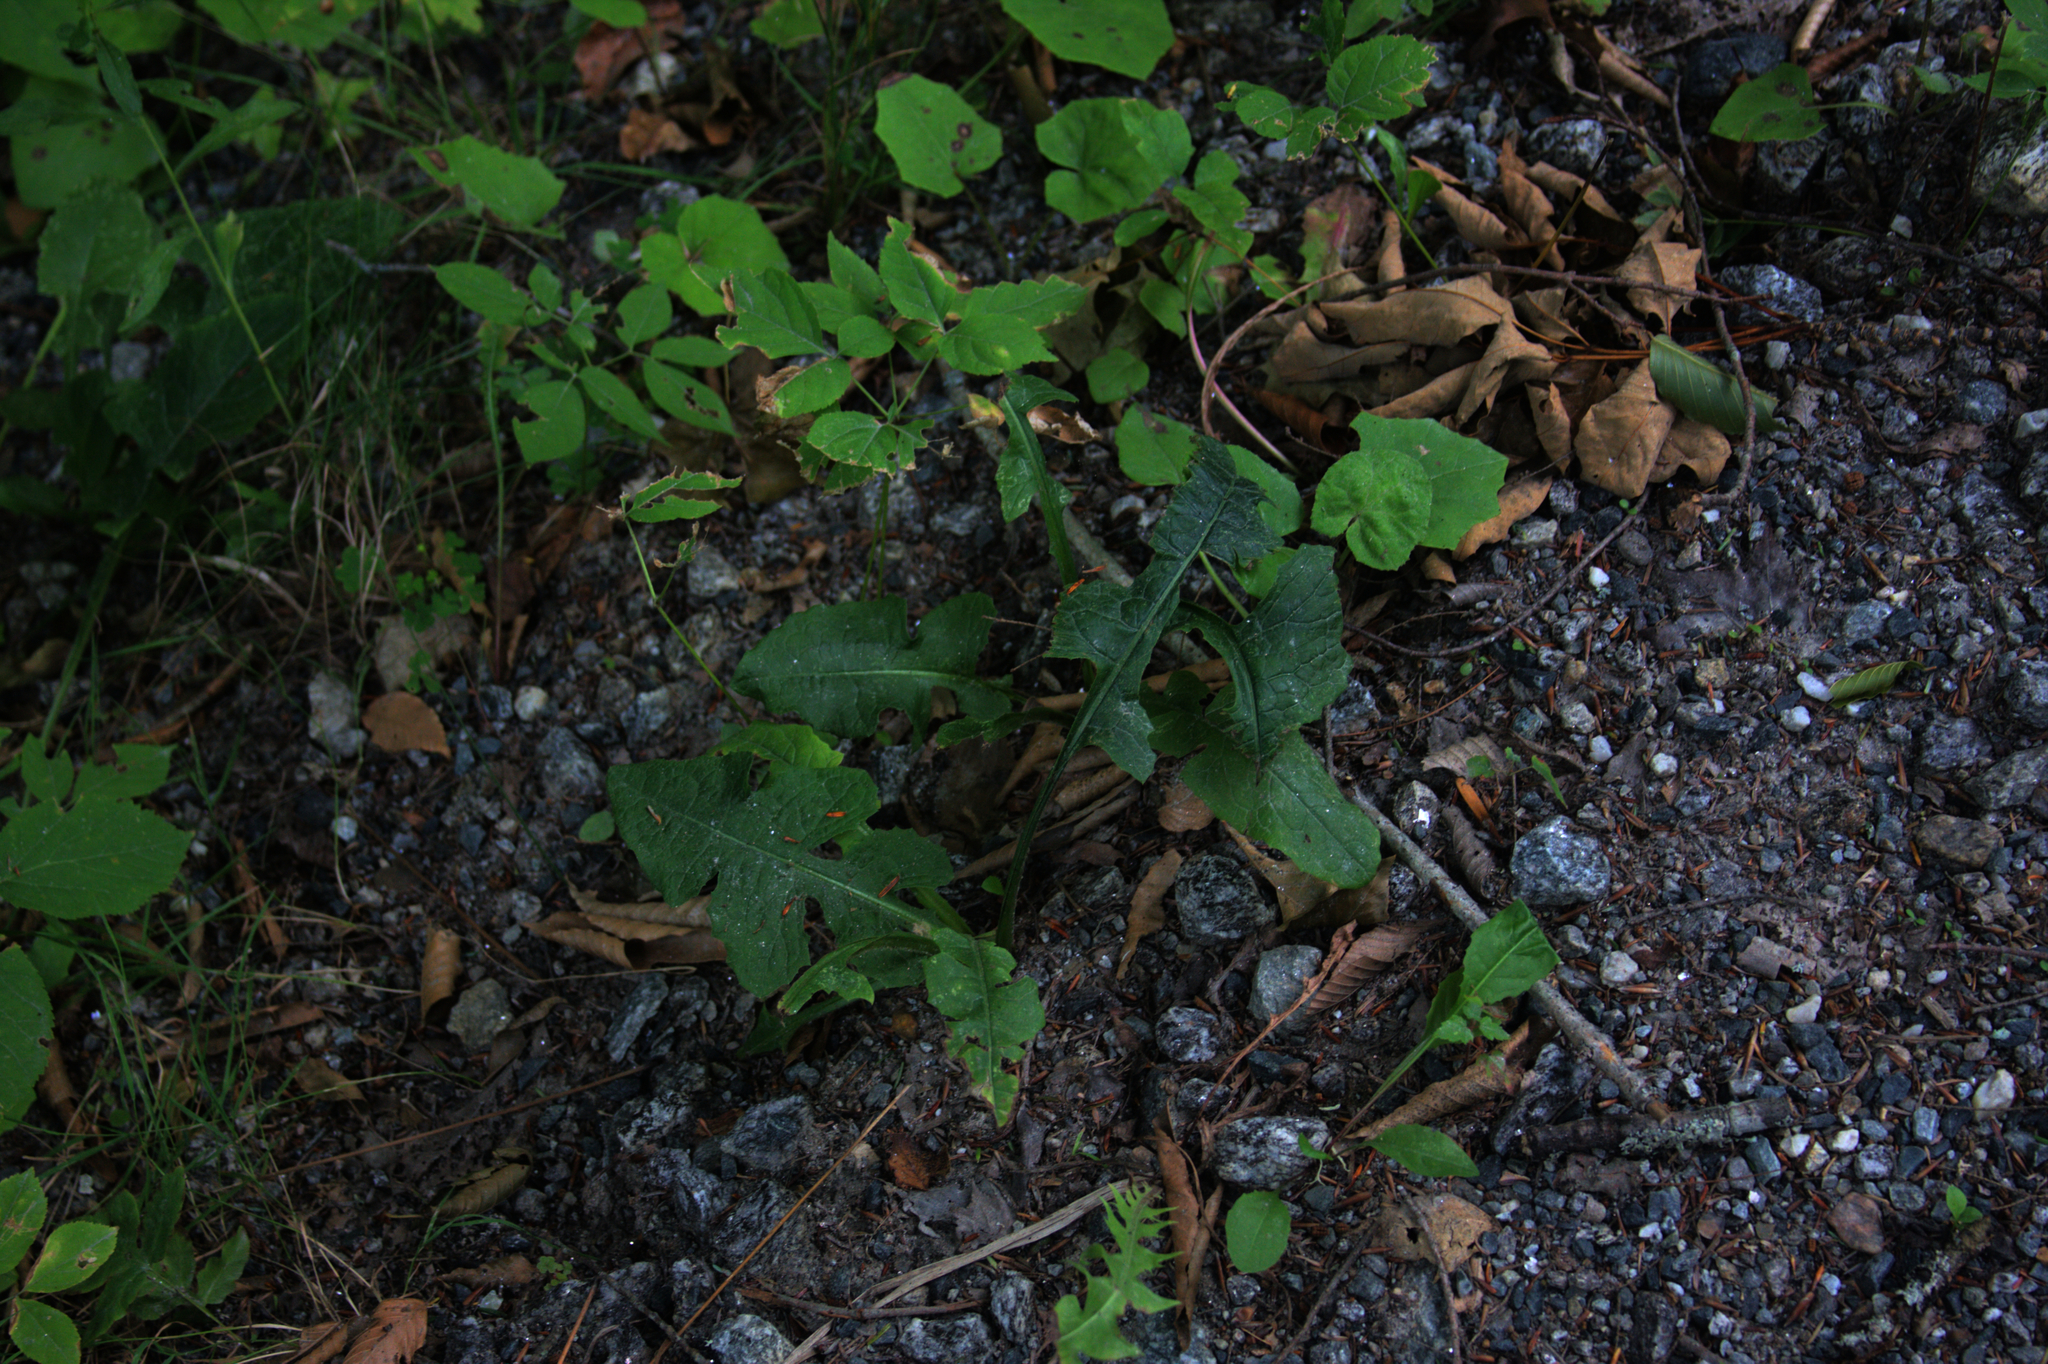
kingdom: Plantae
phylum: Tracheophyta
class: Magnoliopsida
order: Asterales
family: Asteraceae
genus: Tussilago
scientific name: Tussilago farfara
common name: Coltsfoot
